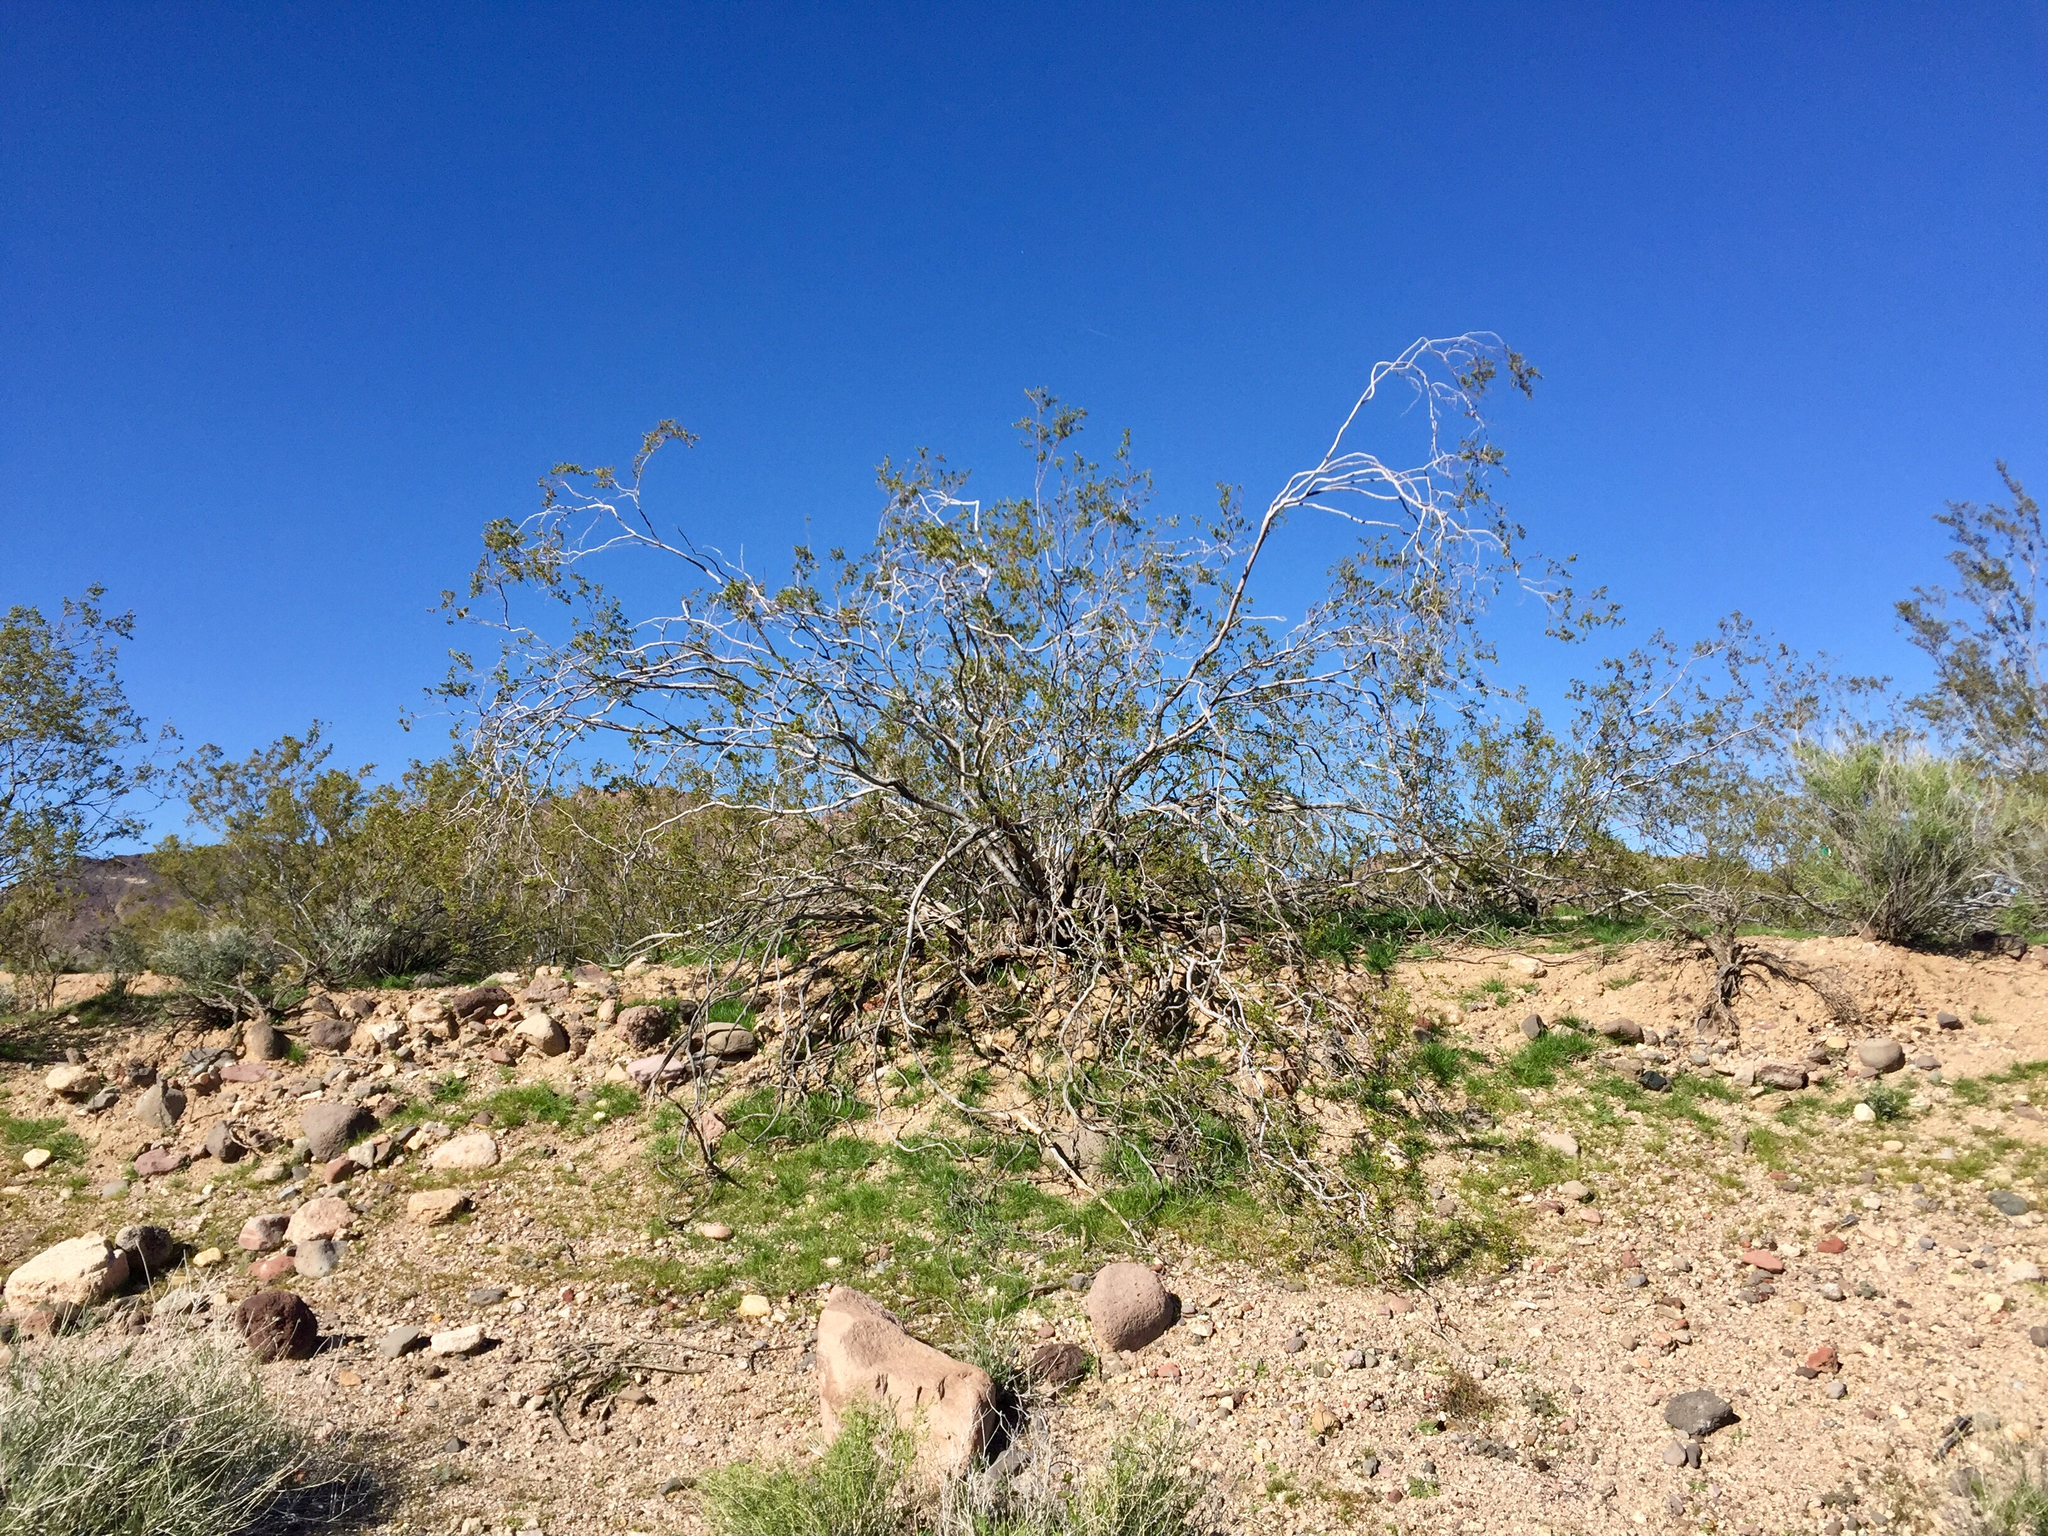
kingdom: Plantae
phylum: Tracheophyta
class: Magnoliopsida
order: Zygophyllales
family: Zygophyllaceae
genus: Larrea
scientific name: Larrea tridentata
